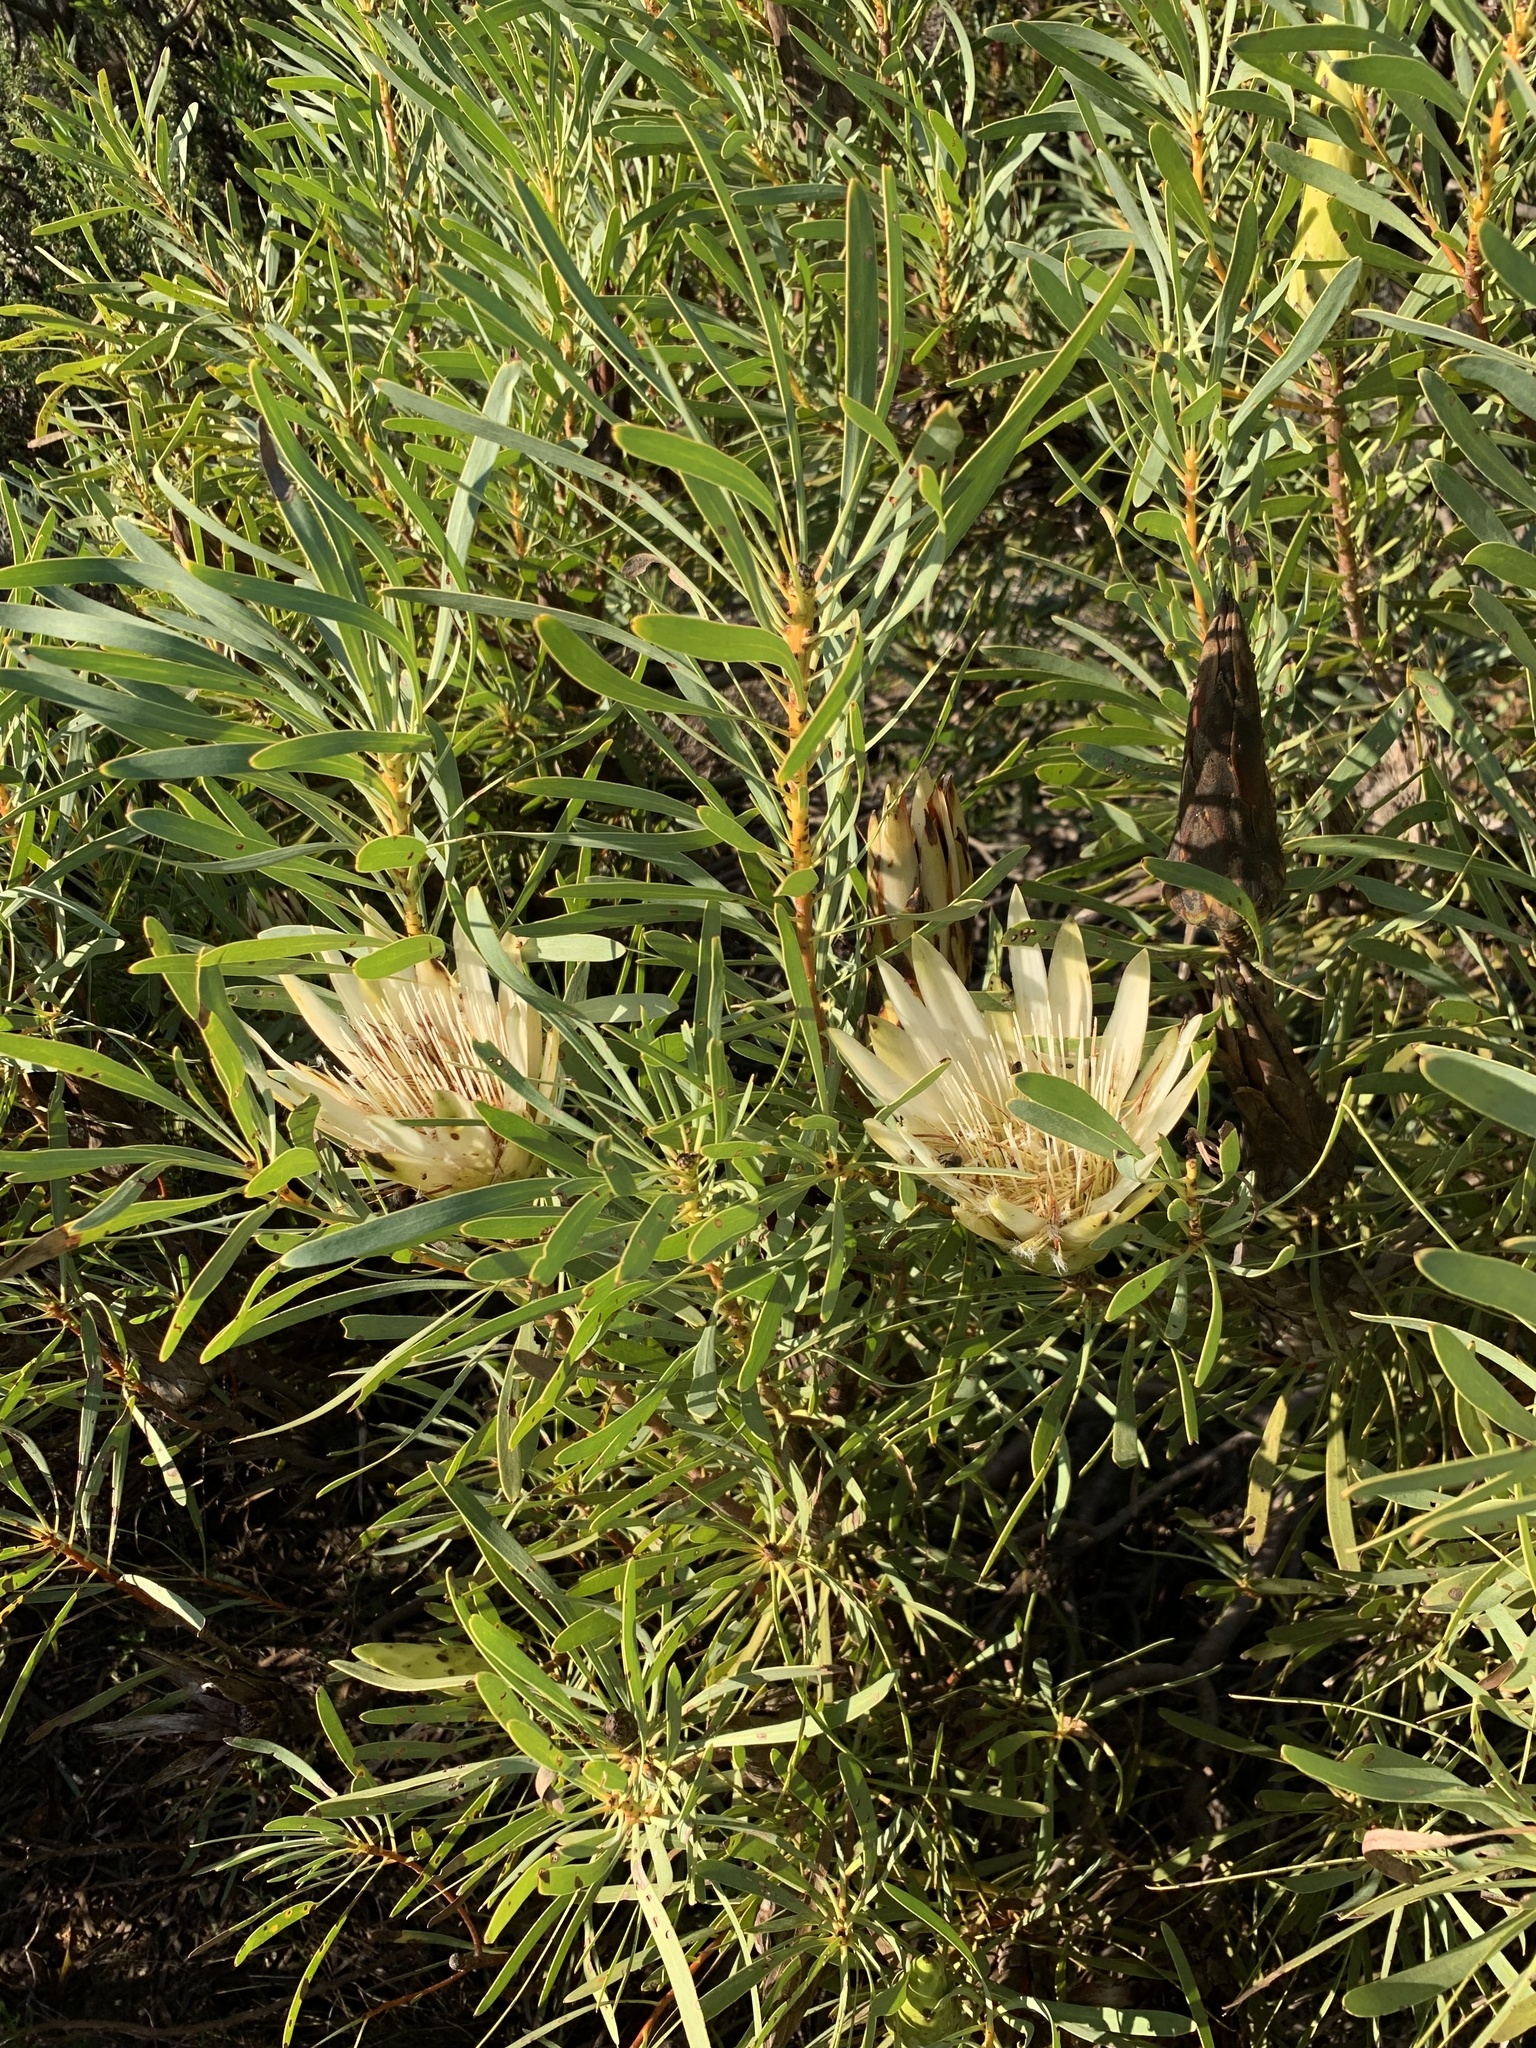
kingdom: Plantae
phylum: Tracheophyta
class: Magnoliopsida
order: Proteales
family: Proteaceae
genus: Protea
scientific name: Protea repens
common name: Sugarbush
